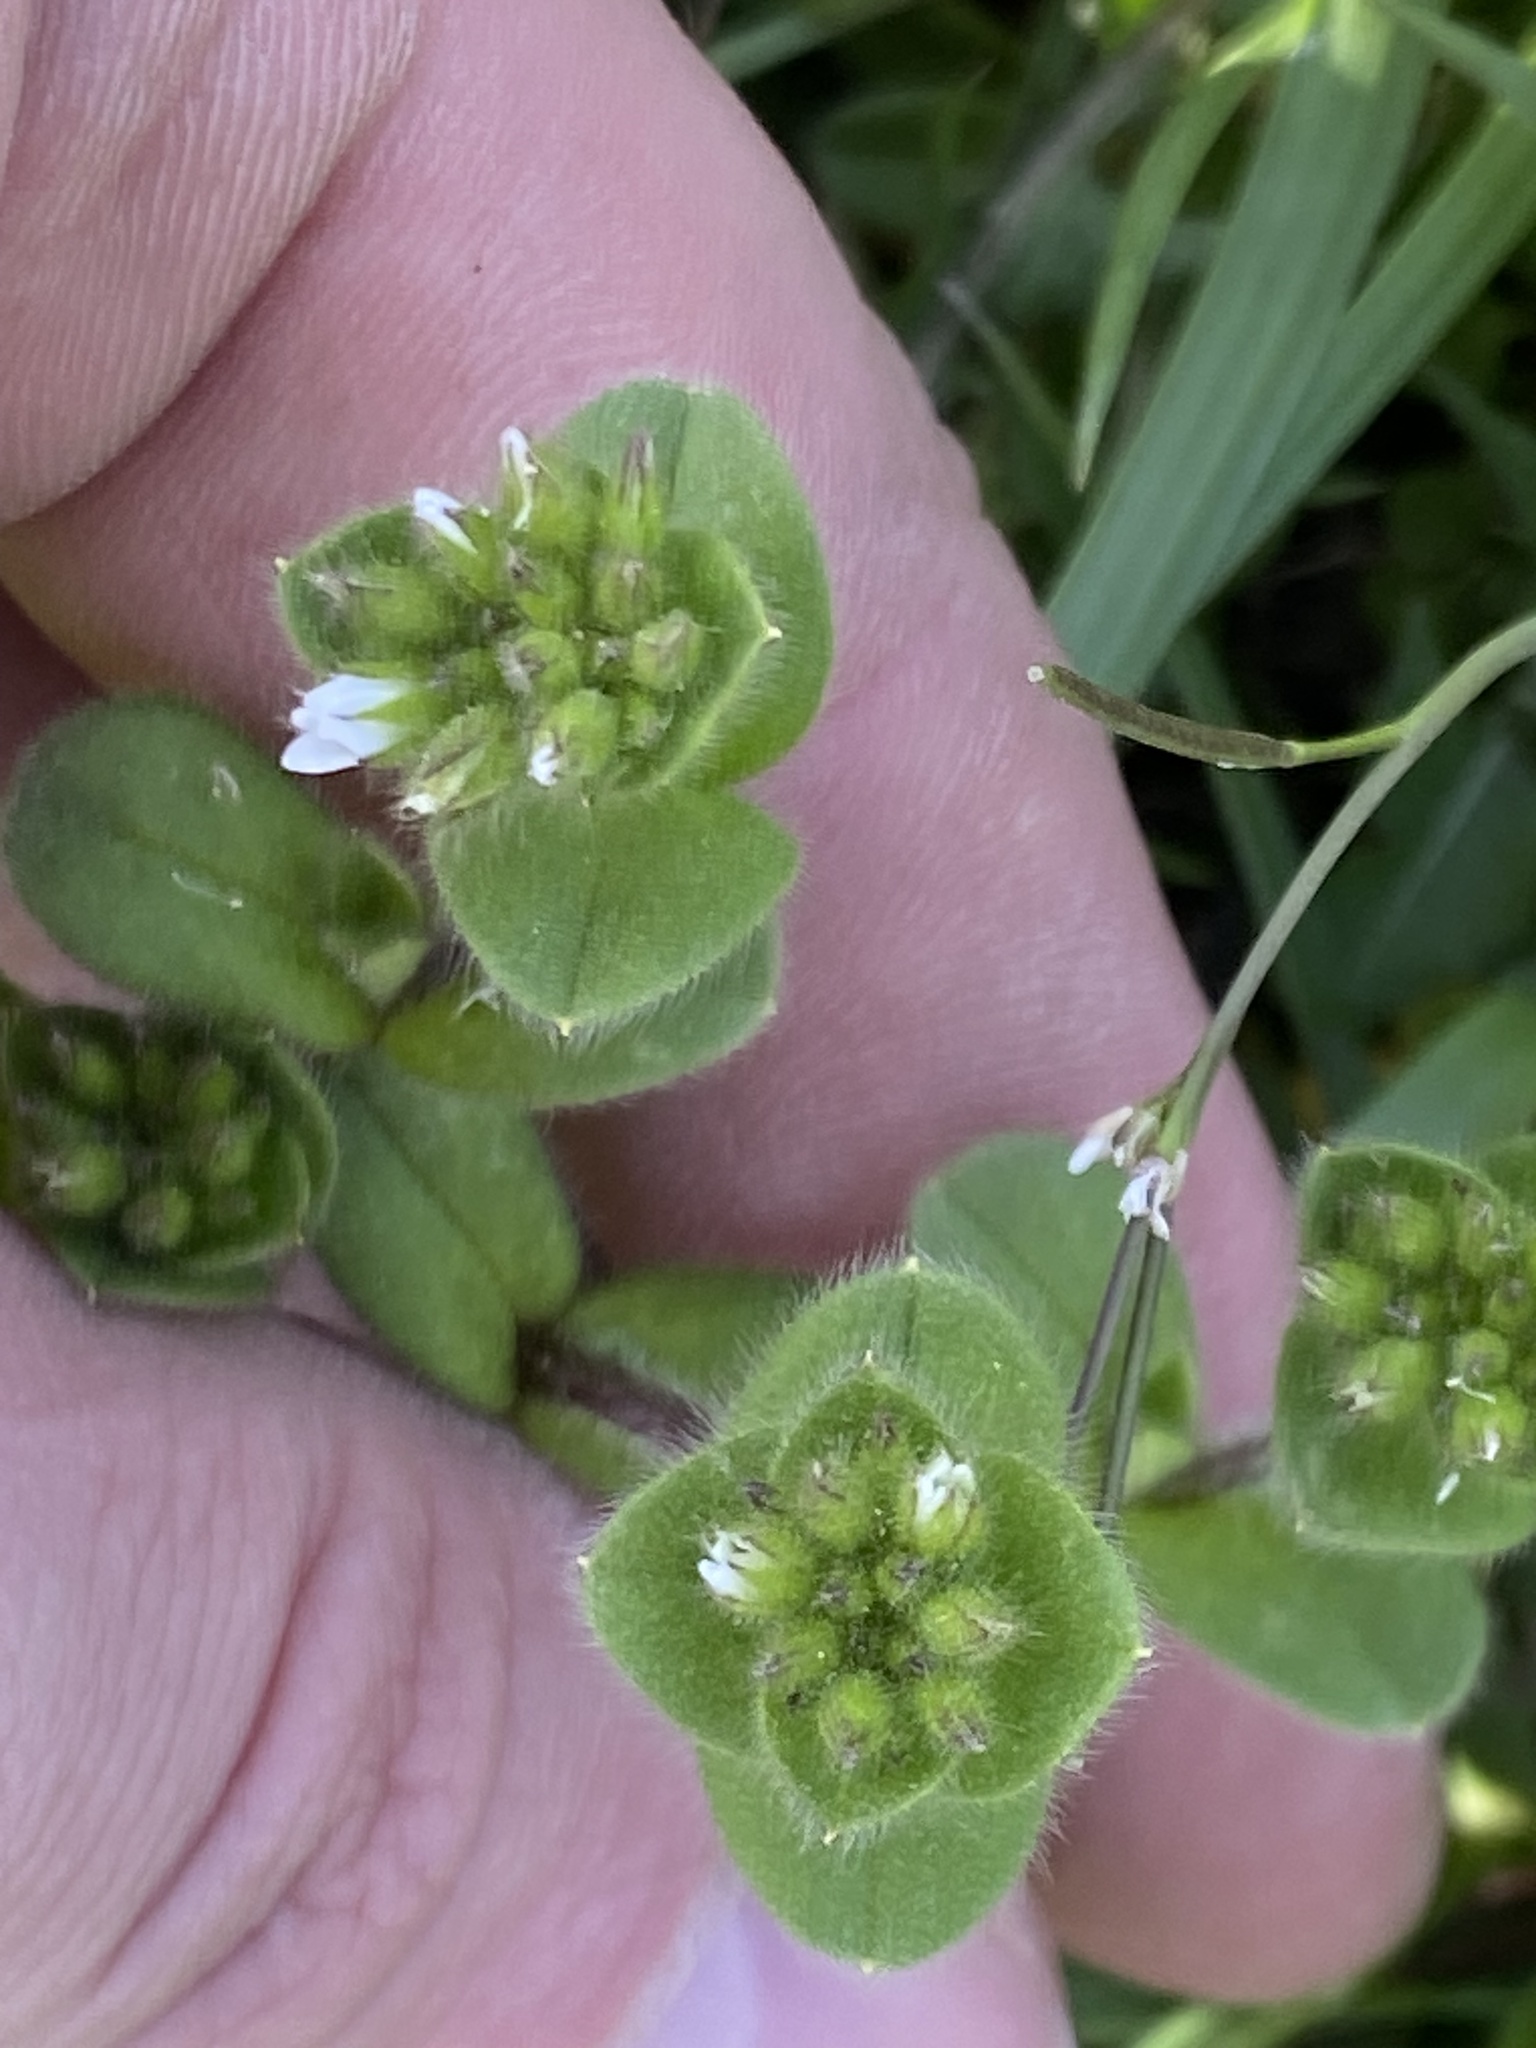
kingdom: Plantae
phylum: Tracheophyta
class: Magnoliopsida
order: Caryophyllales
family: Caryophyllaceae
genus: Cerastium
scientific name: Cerastium glomeratum
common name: Sticky chickweed
